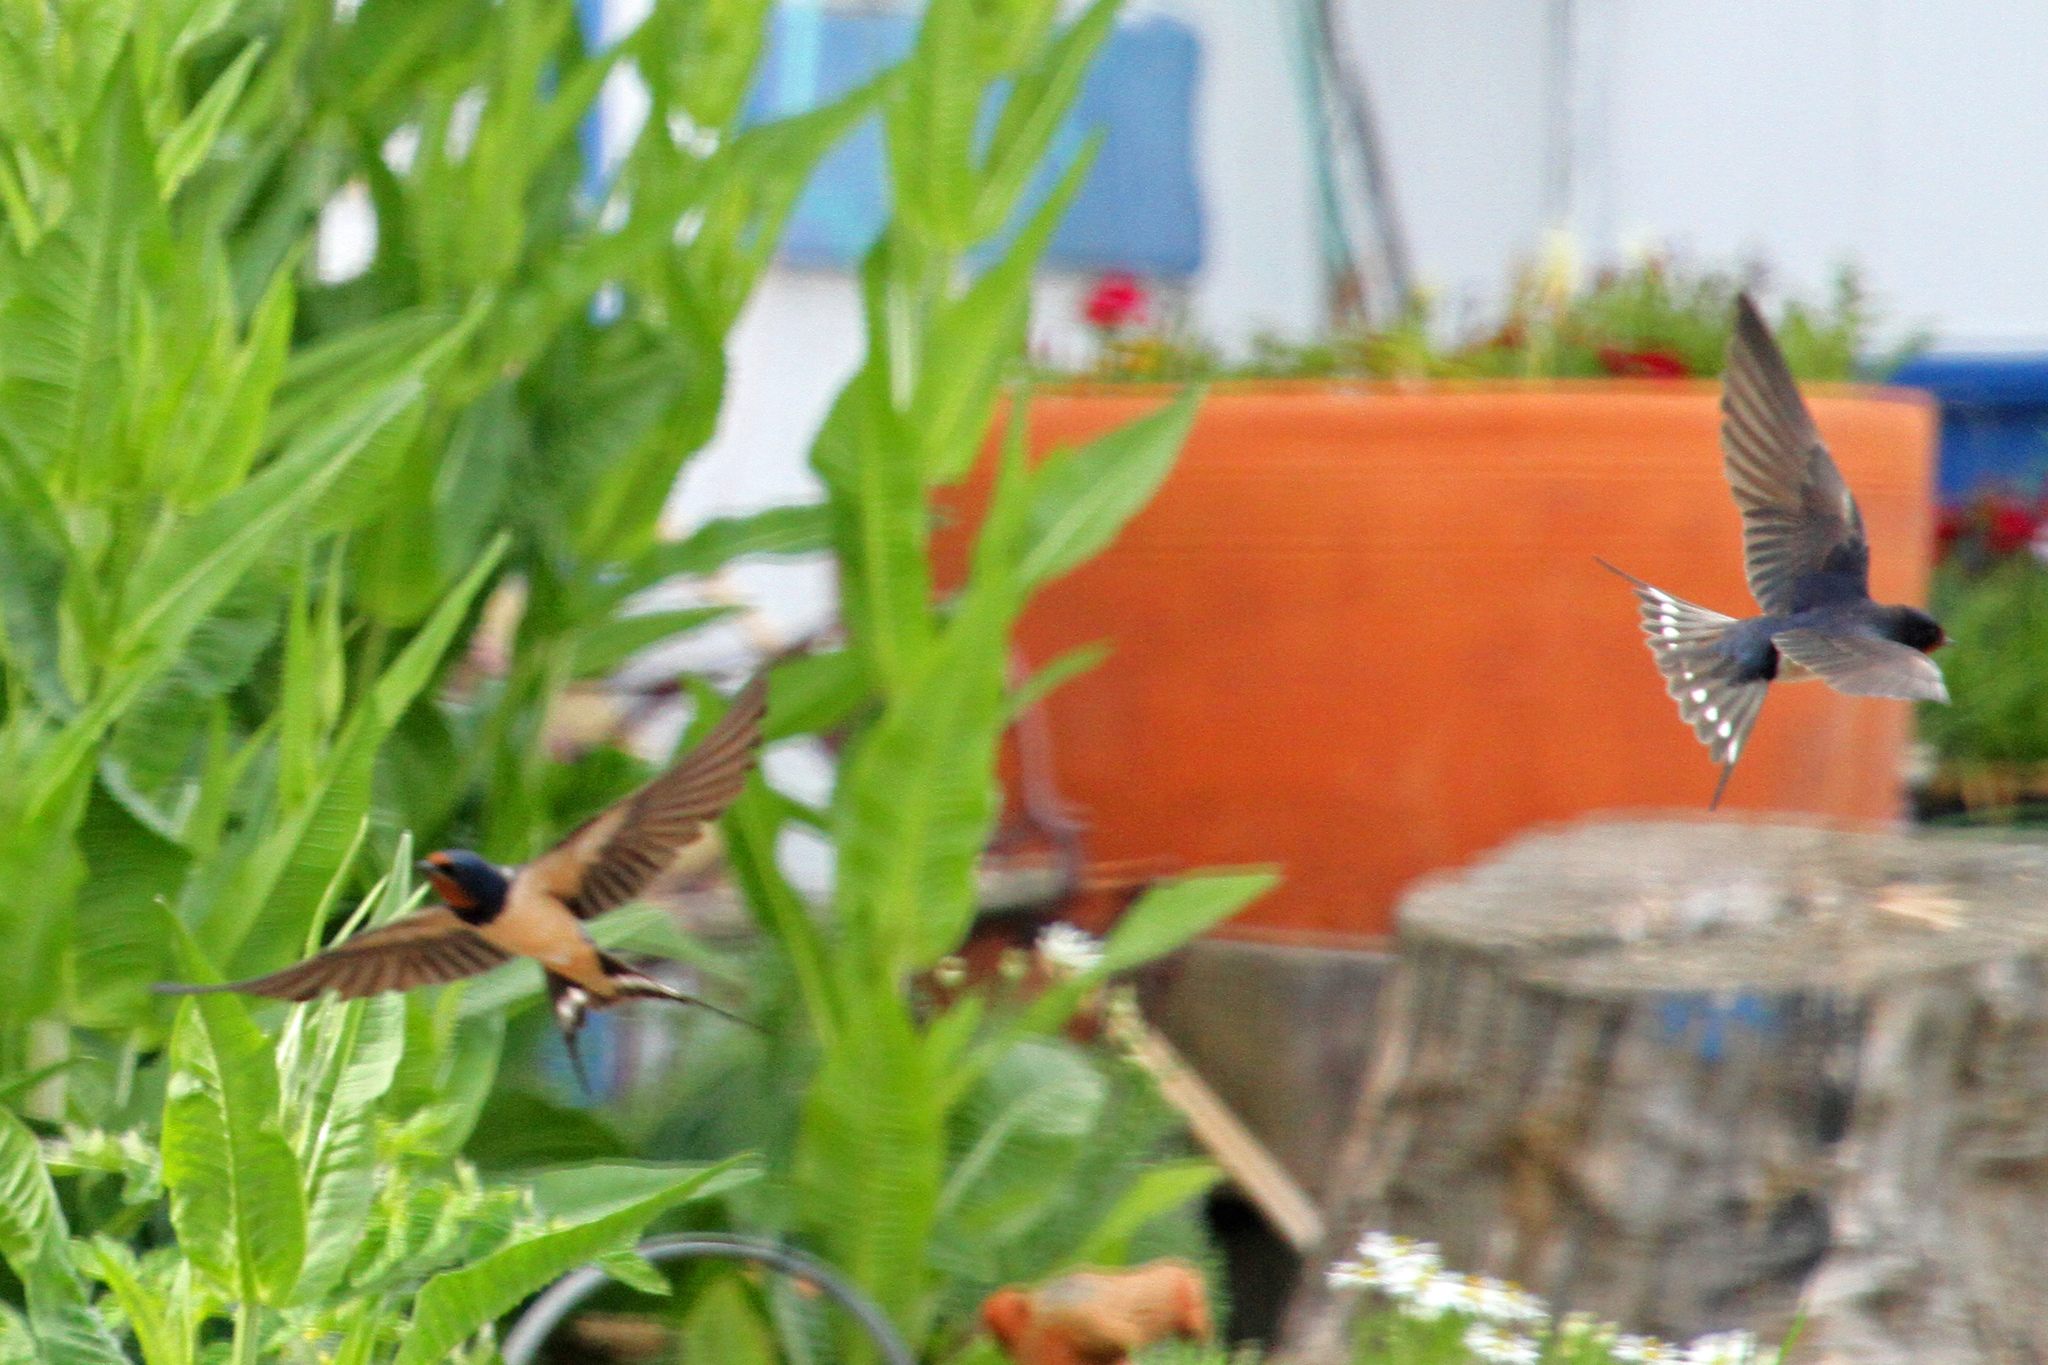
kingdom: Animalia
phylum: Chordata
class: Aves
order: Passeriformes
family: Hirundinidae
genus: Hirundo
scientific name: Hirundo rustica
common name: Barn swallow
